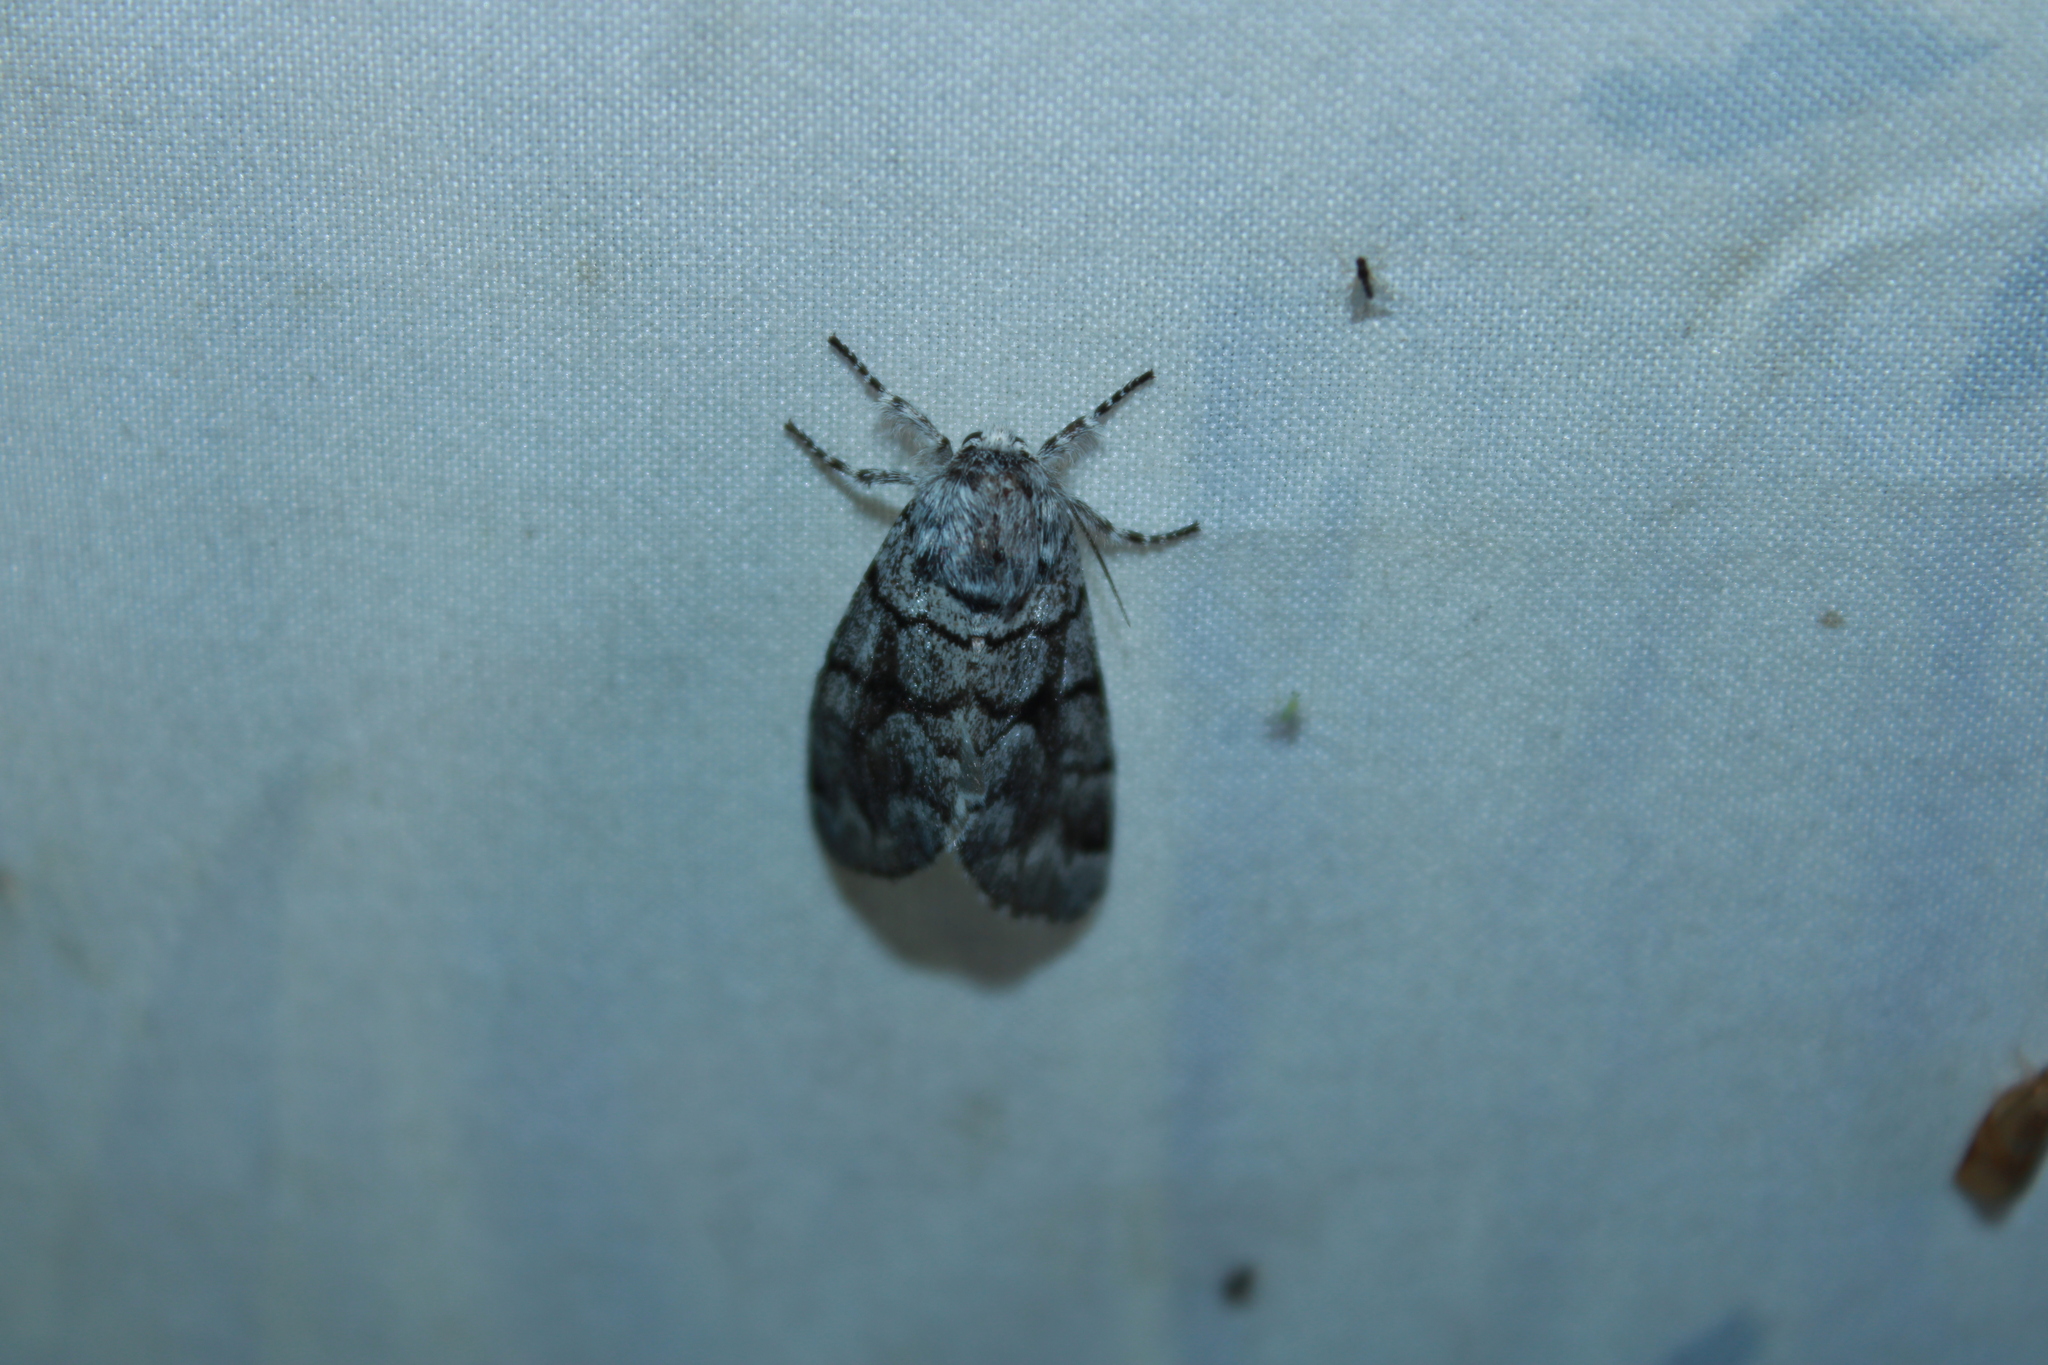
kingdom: Animalia
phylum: Arthropoda
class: Insecta
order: Lepidoptera
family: Noctuidae
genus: Panthea
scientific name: Panthea furcilla
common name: Eastern panthea moth
